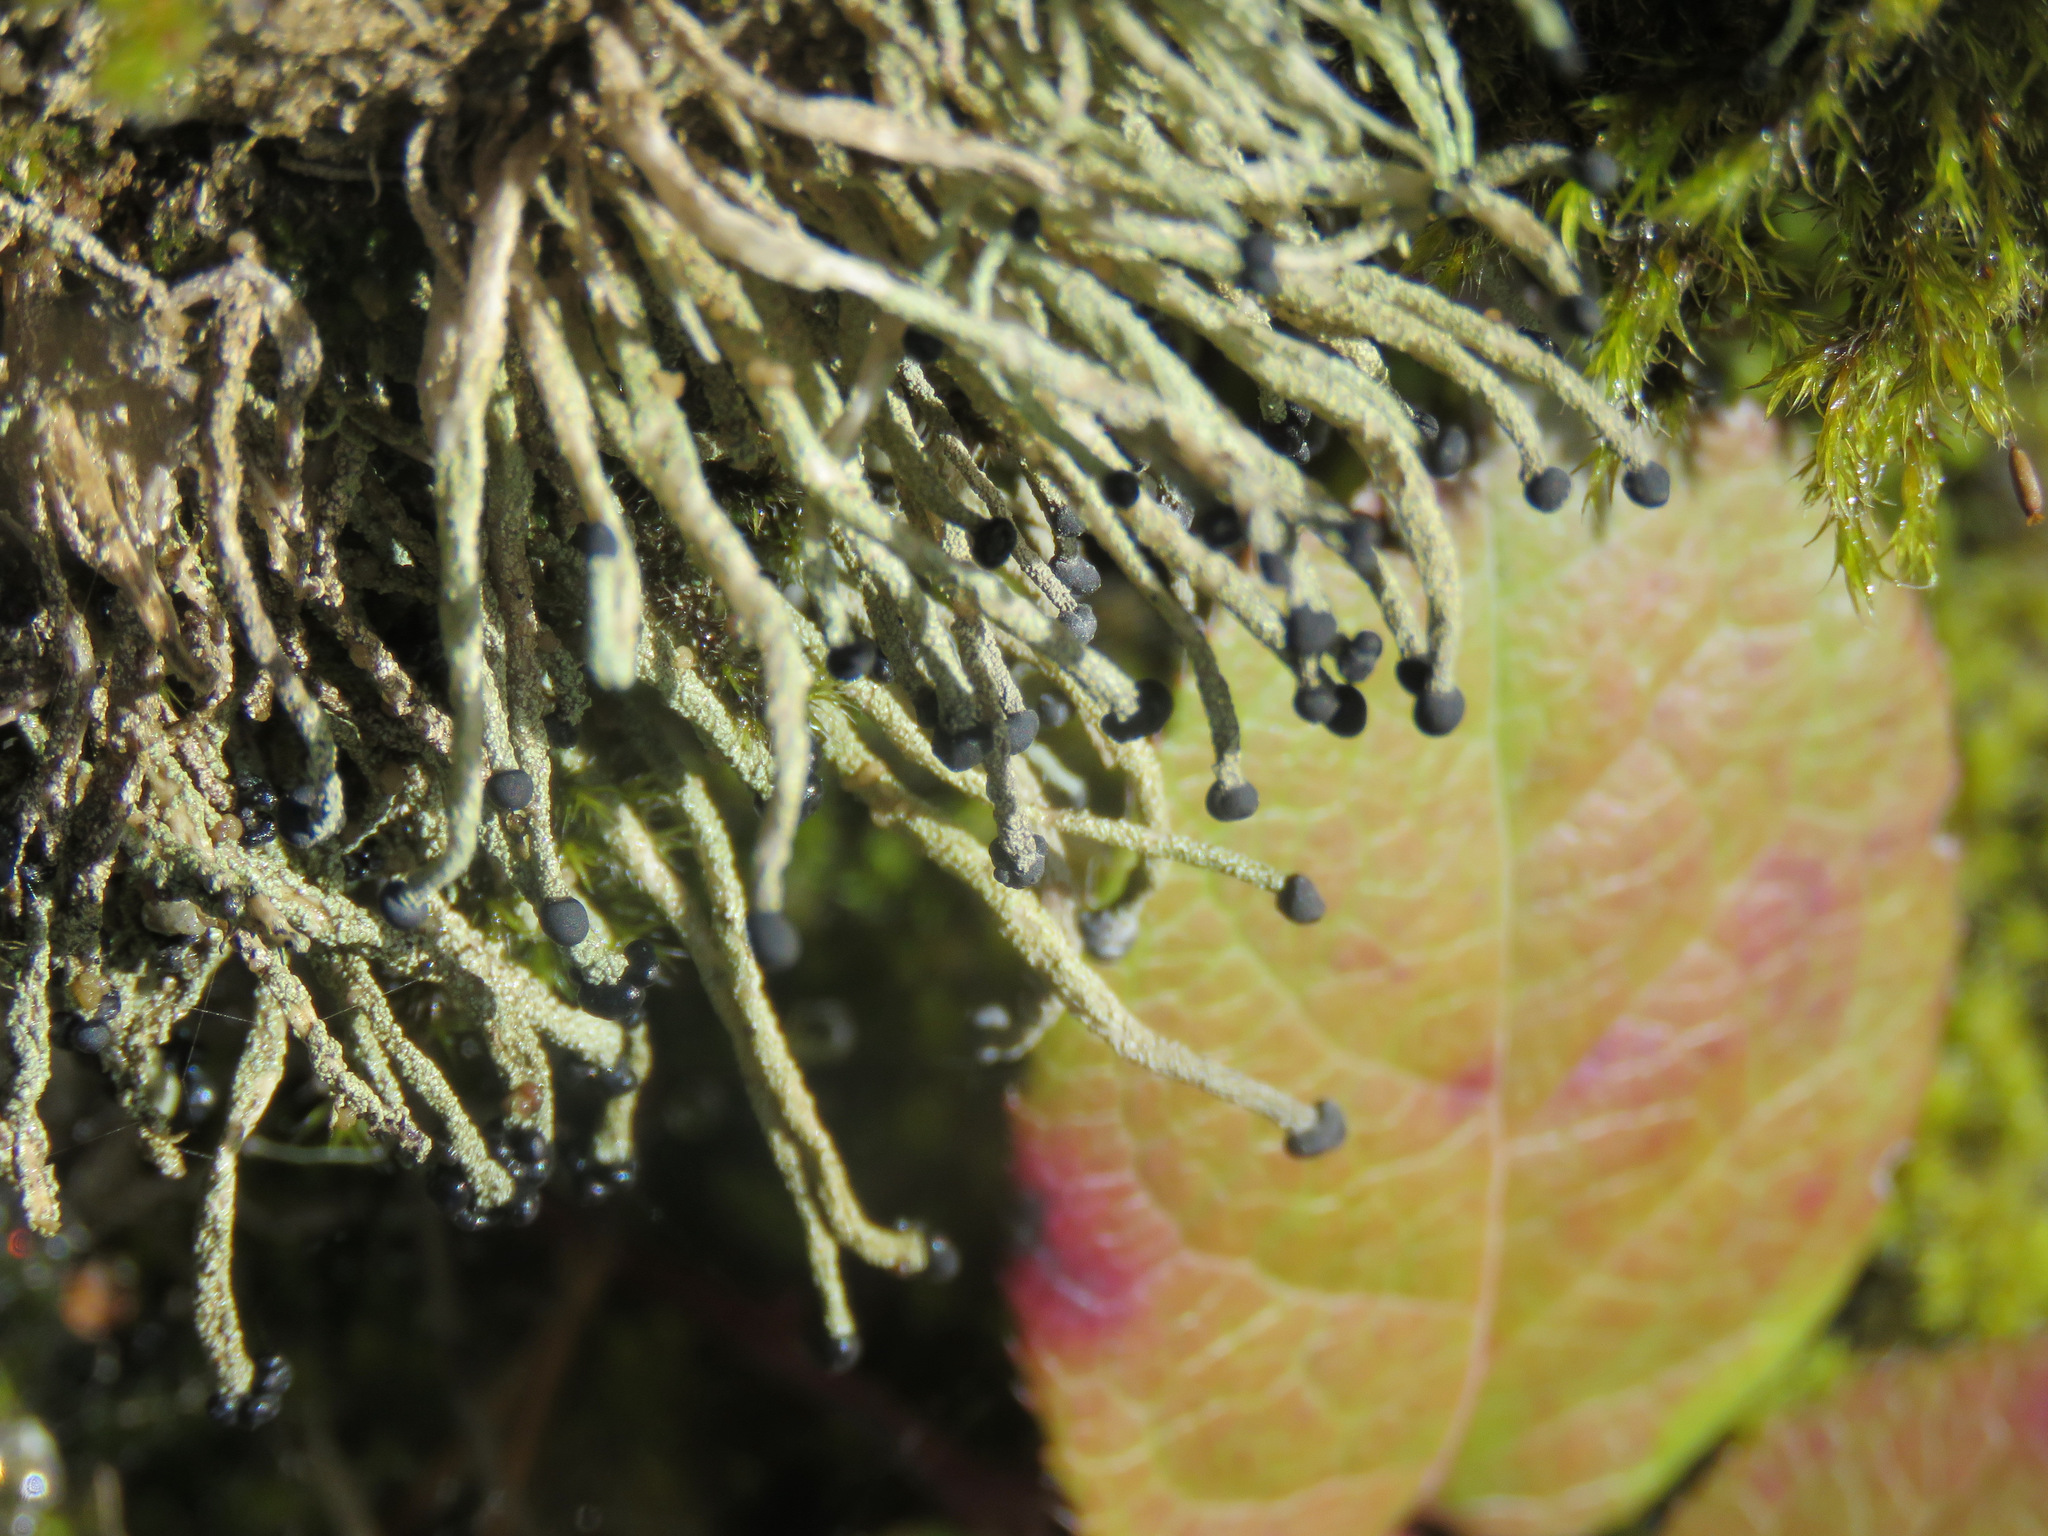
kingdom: Fungi
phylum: Ascomycota
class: Lecanoromycetes
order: Lecanorales
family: Cladoniaceae
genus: Pilophorus
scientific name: Pilophorus acicularis
